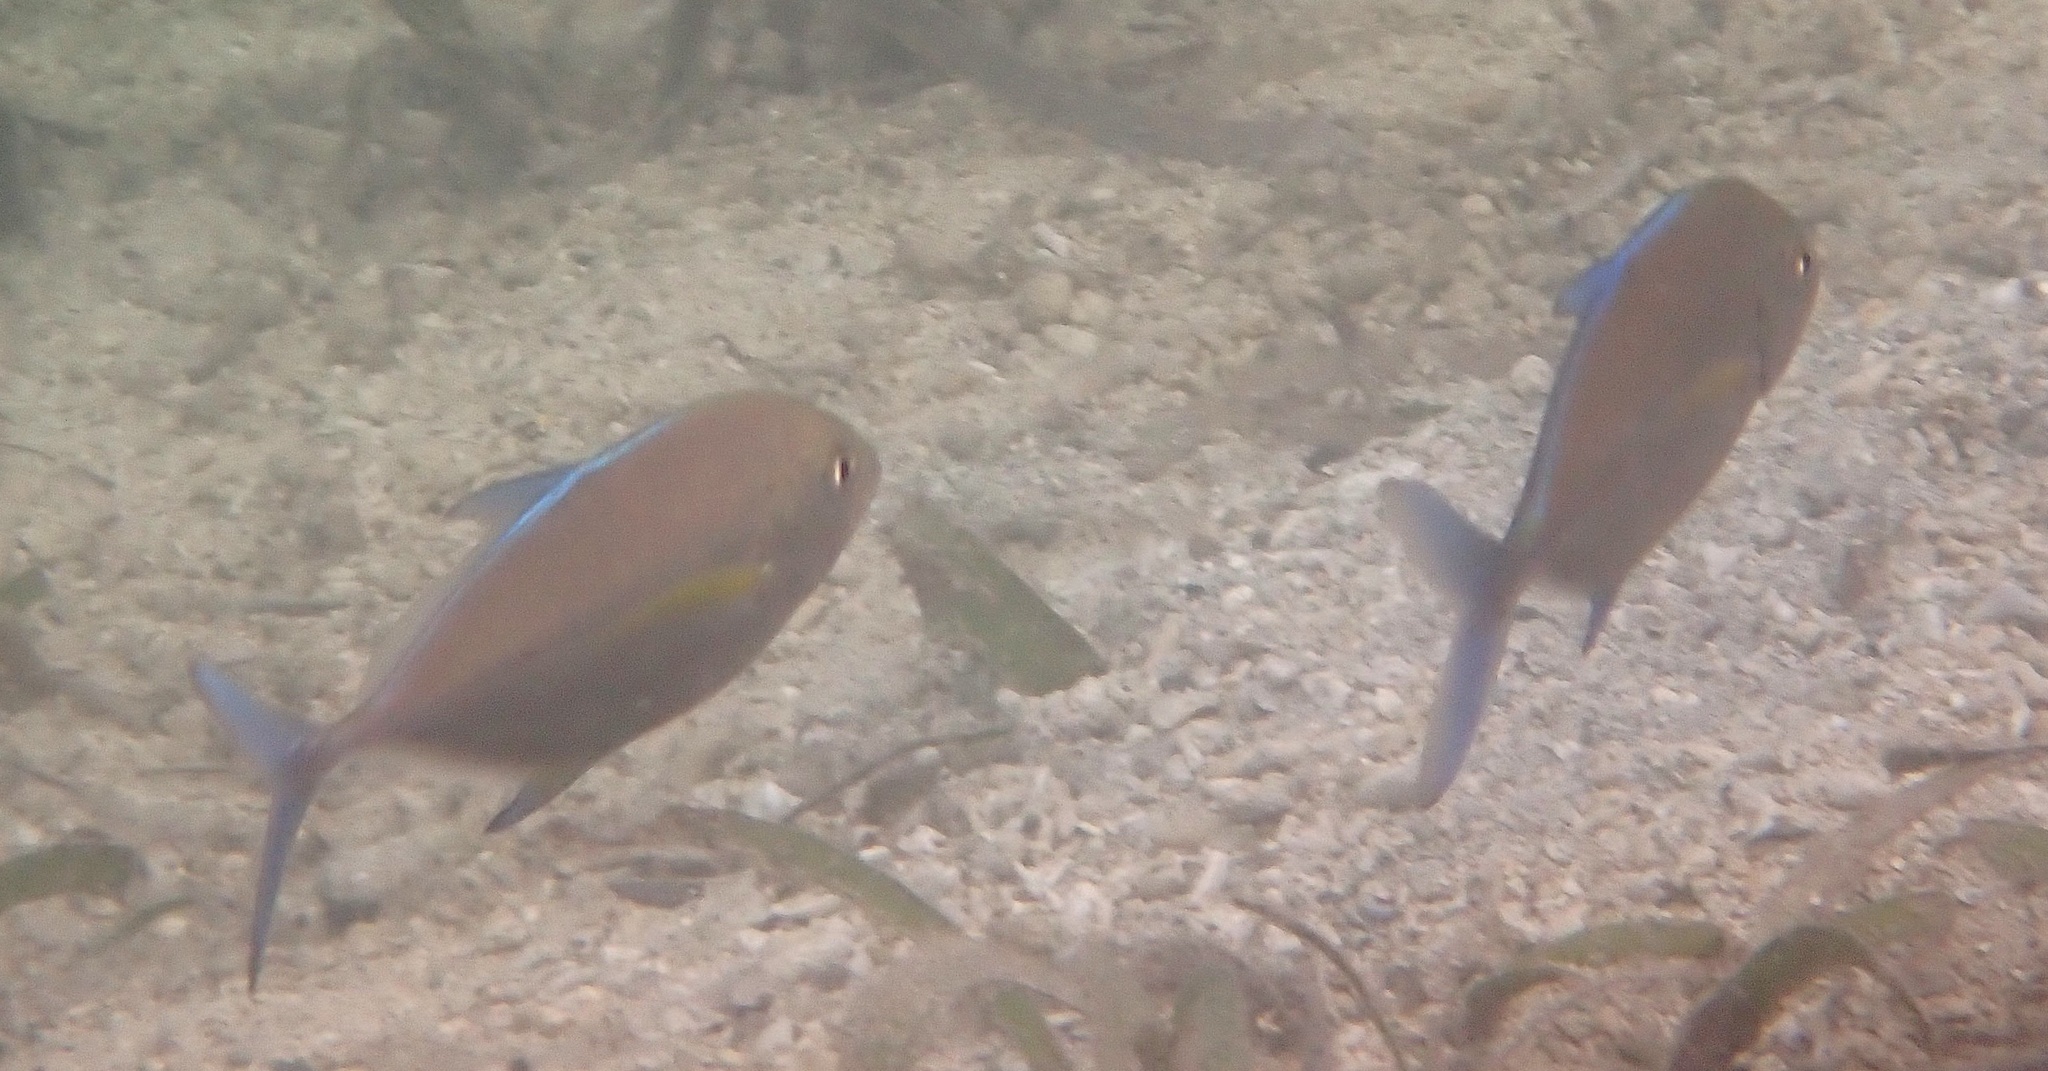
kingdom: Animalia
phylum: Chordata
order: Perciformes
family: Carangidae
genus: Caranx
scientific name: Caranx melampygus
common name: Bluefin trevally
